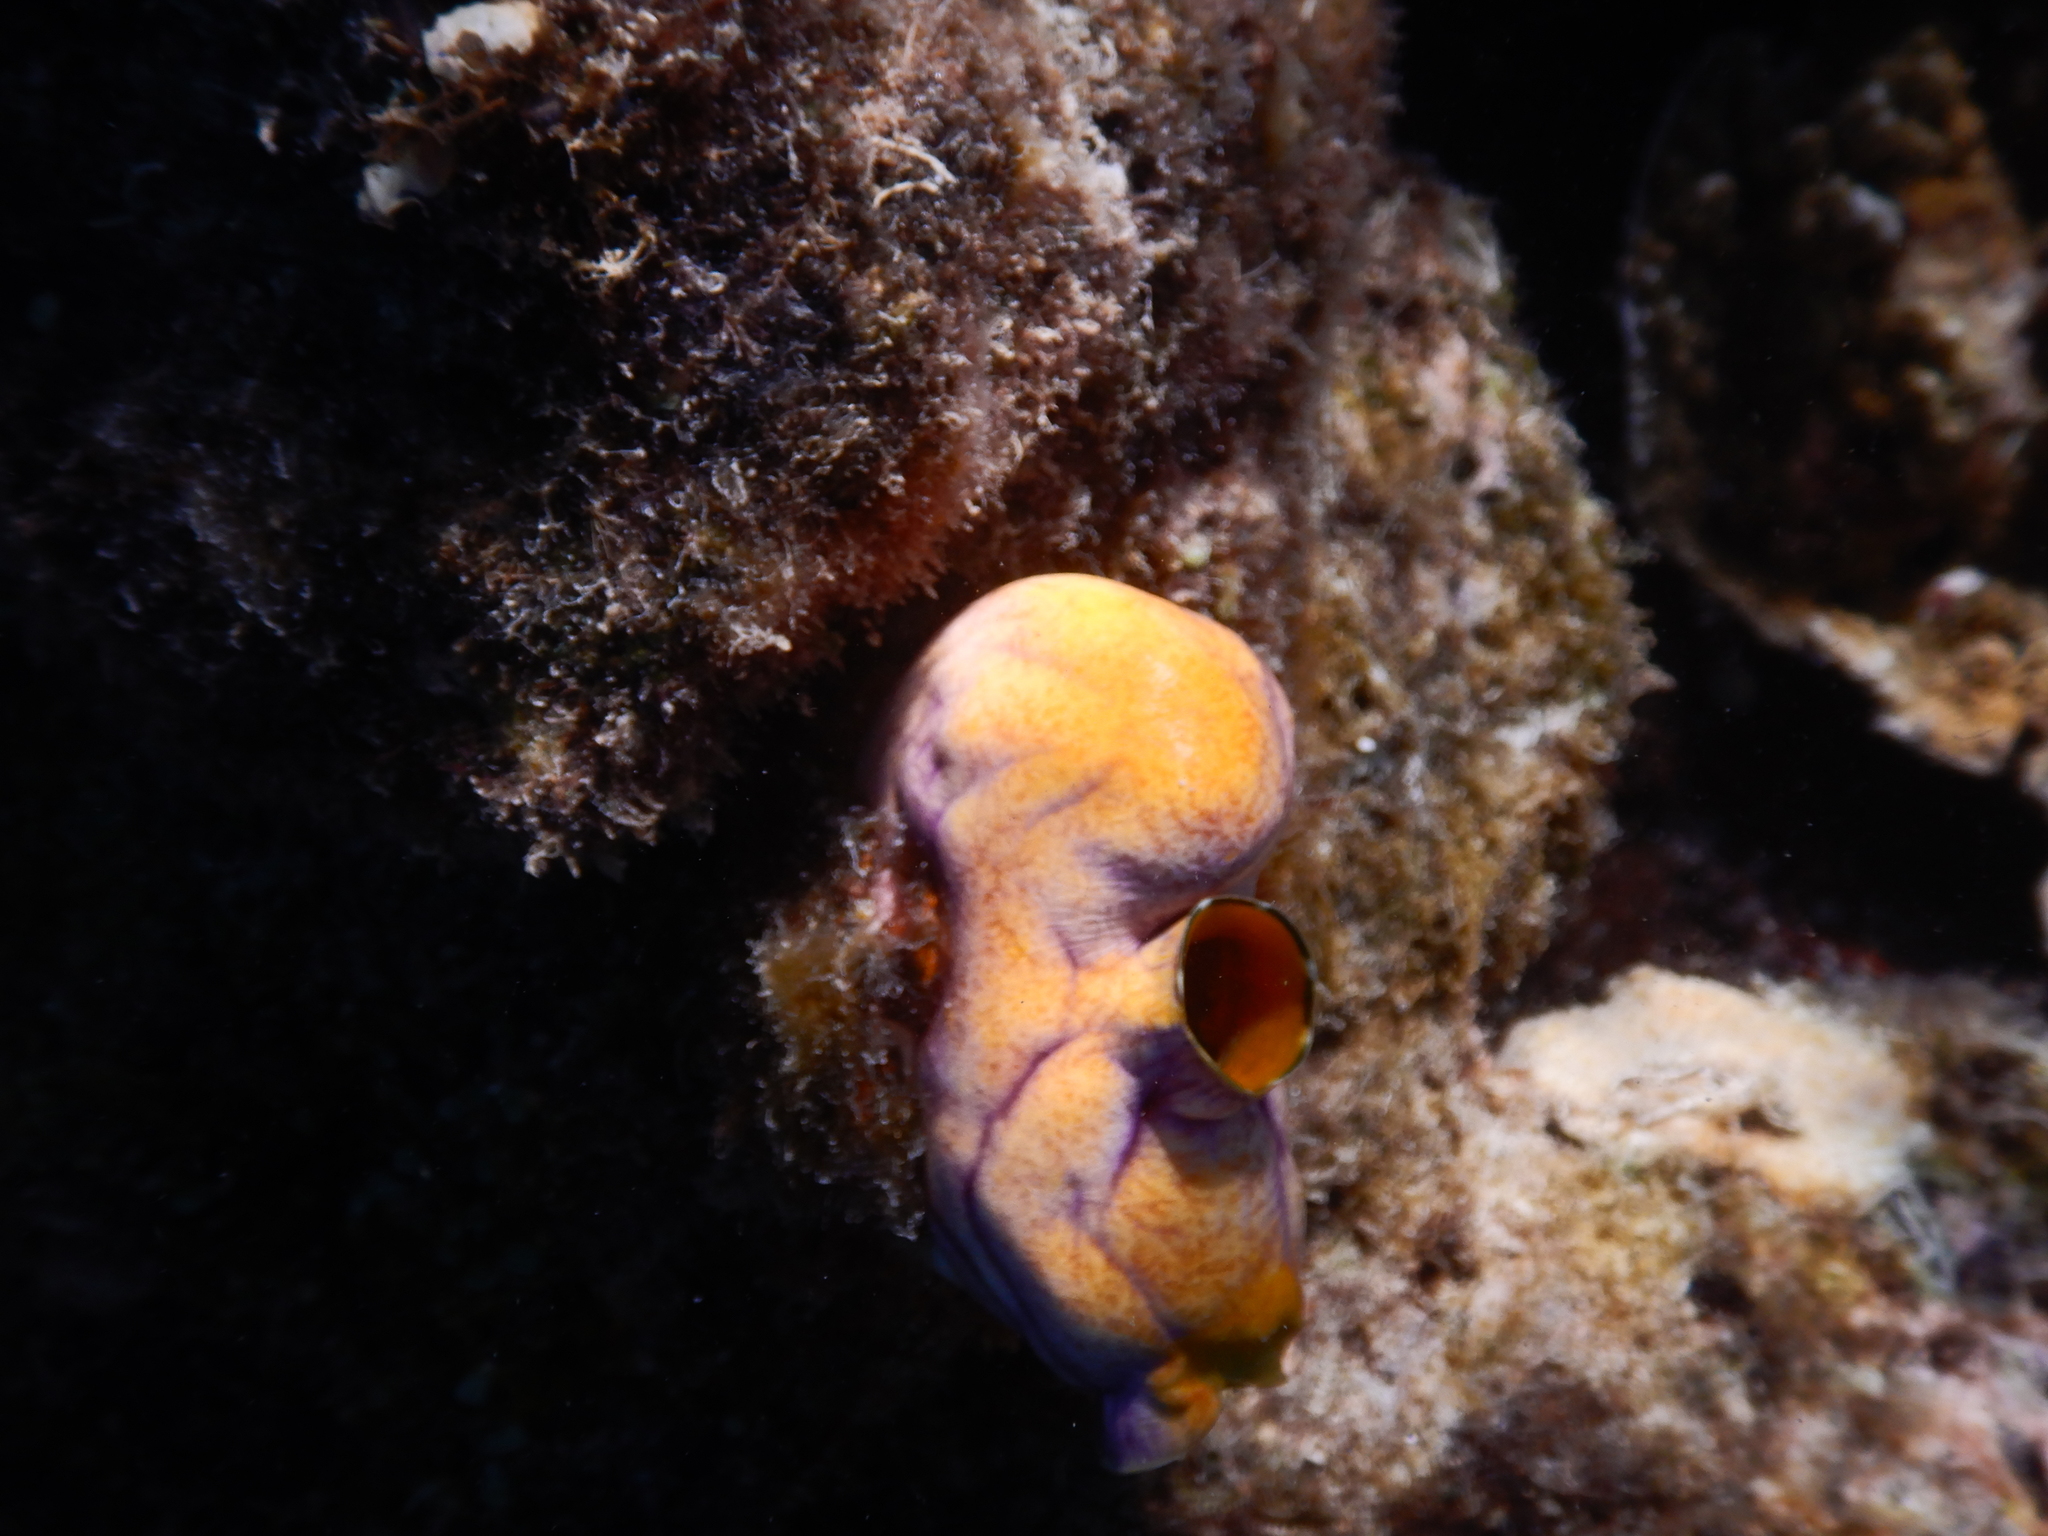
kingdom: Animalia
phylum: Chordata
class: Ascidiacea
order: Stolidobranchia
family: Styelidae
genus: Polycarpa
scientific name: Polycarpa aurata
